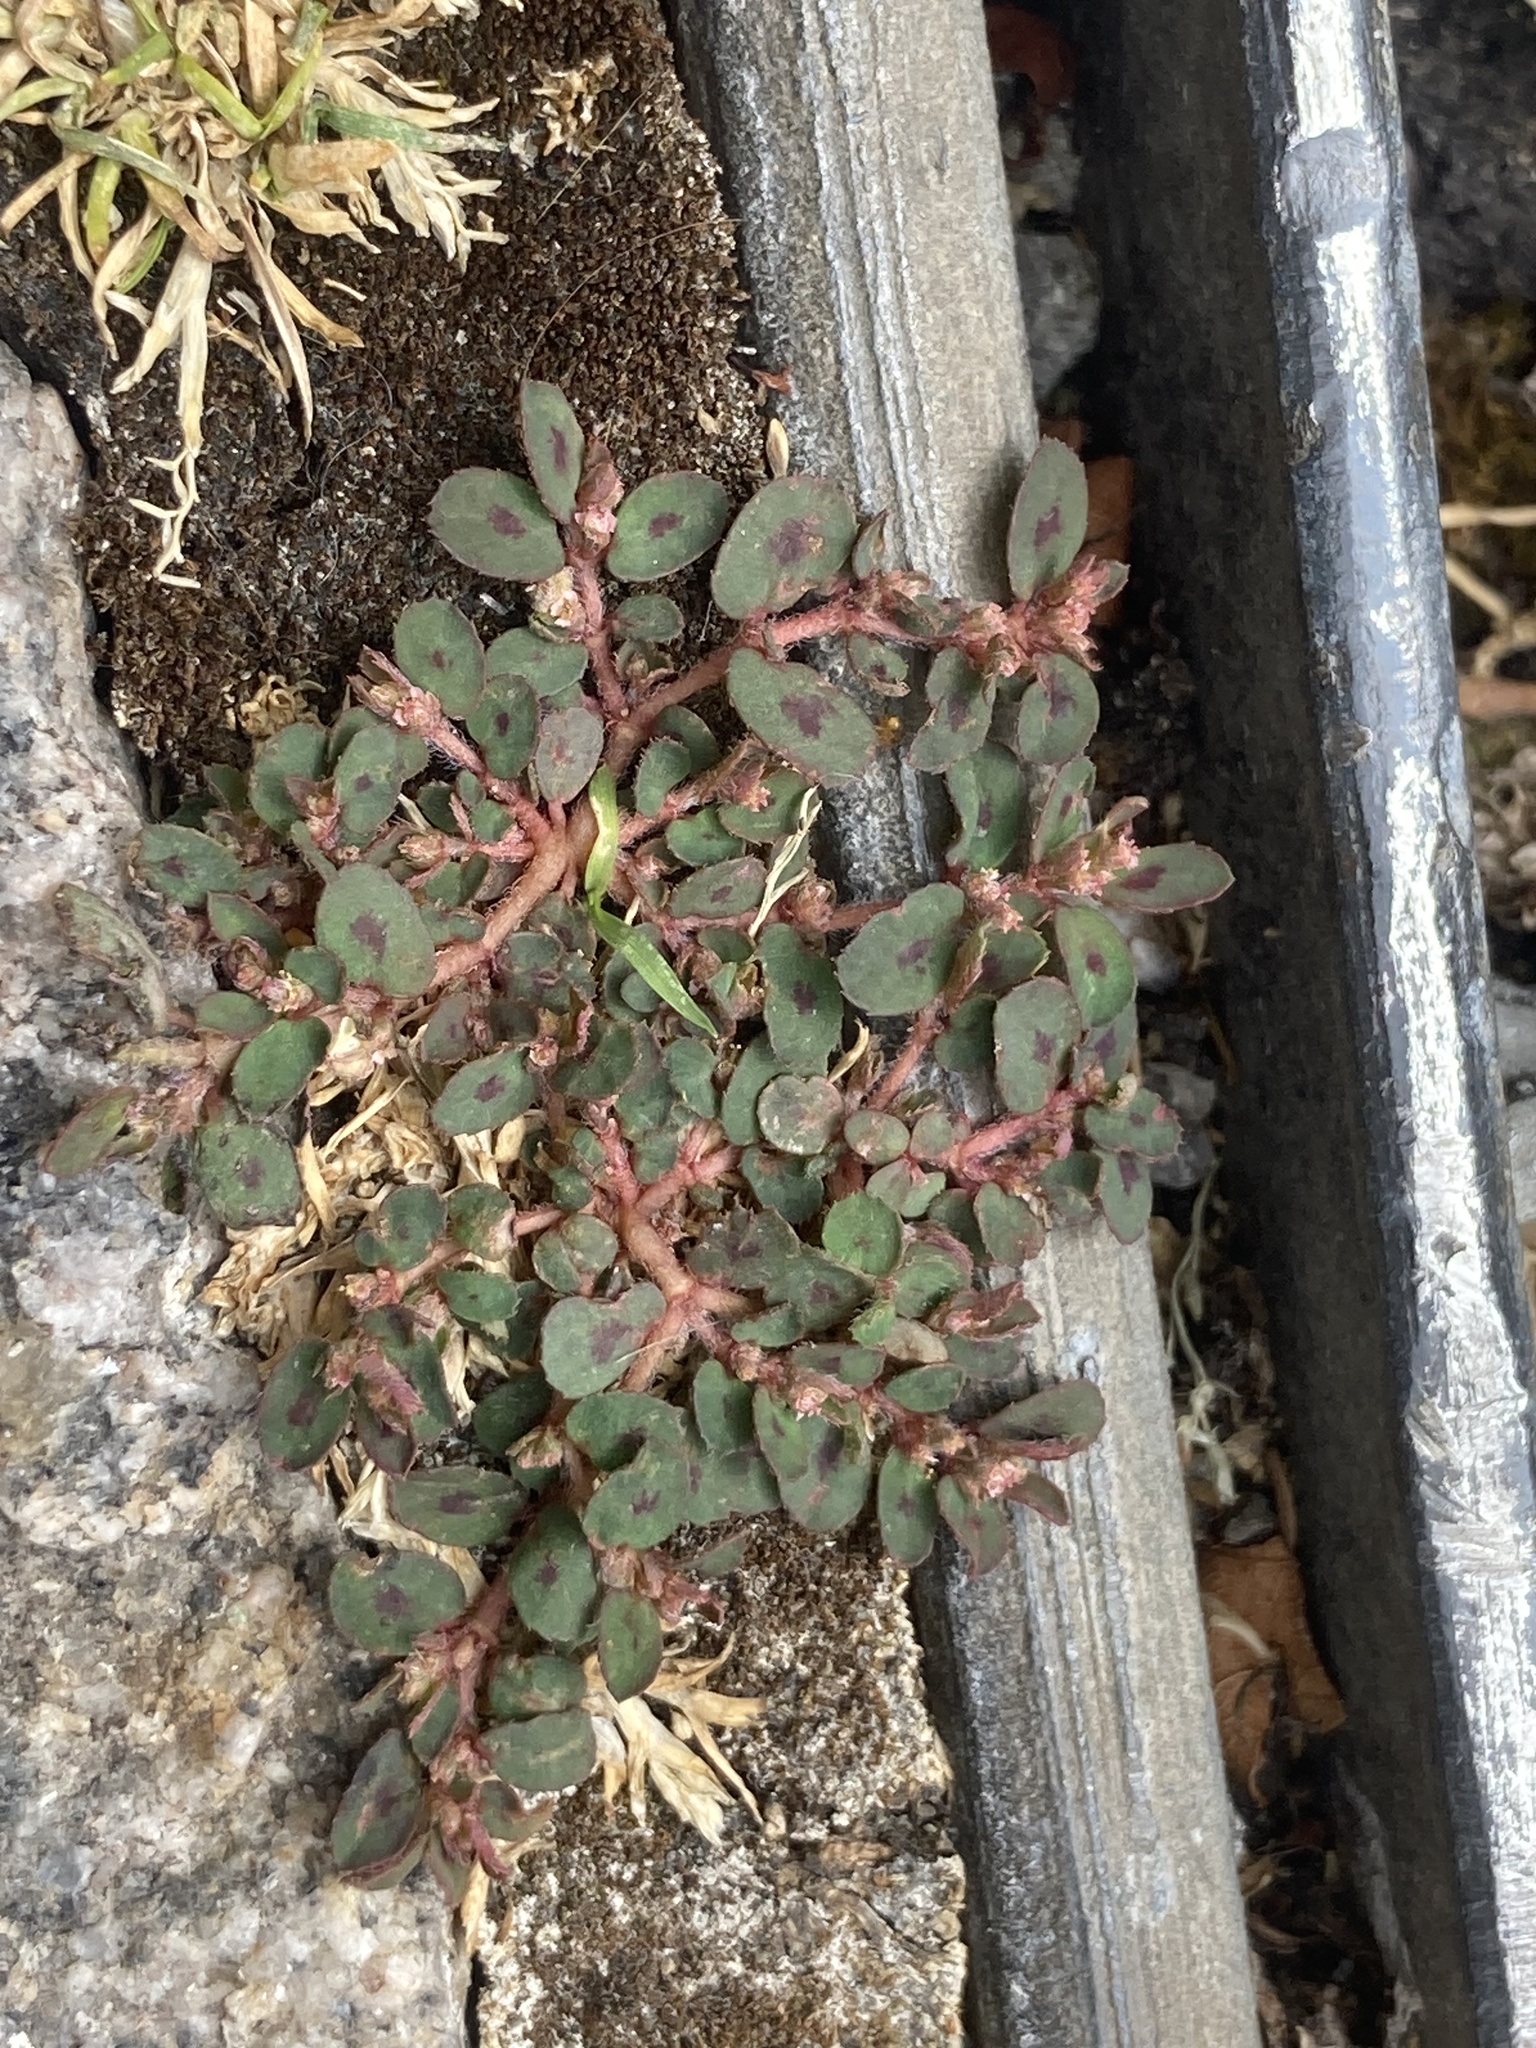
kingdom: Plantae
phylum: Tracheophyta
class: Magnoliopsida
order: Malpighiales
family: Euphorbiaceae
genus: Euphorbia
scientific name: Euphorbia maculata
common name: Spotted spurge
